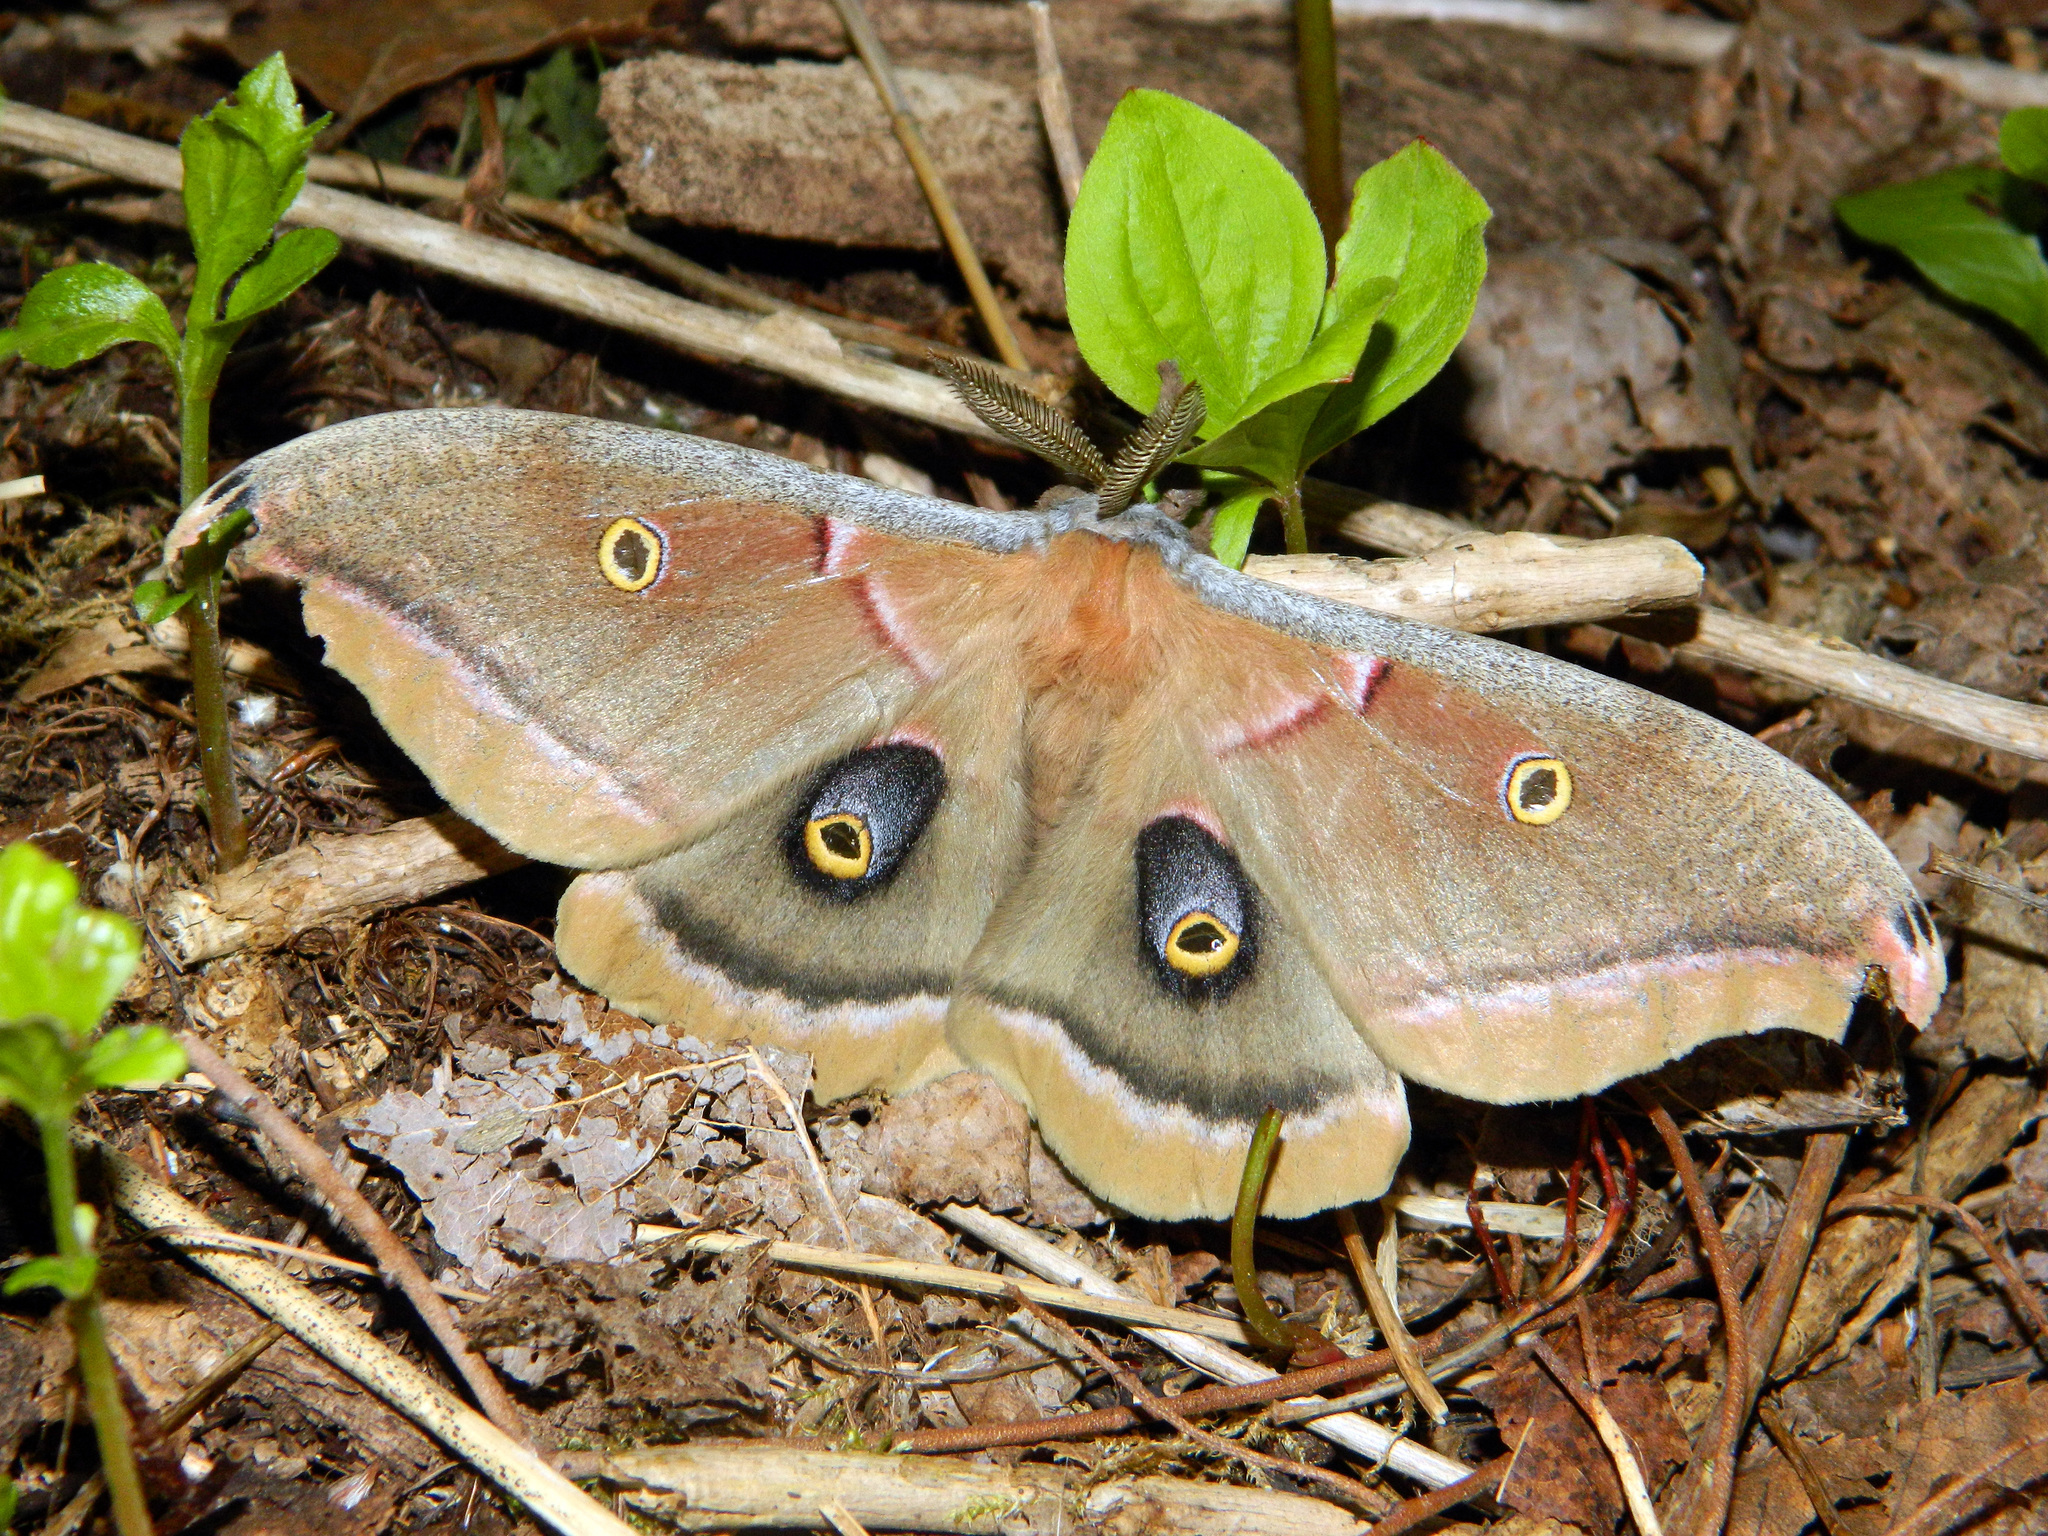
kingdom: Animalia
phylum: Arthropoda
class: Insecta
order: Lepidoptera
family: Saturniidae
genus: Antheraea
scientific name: Antheraea polyphemus
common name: Polyphemus moth
